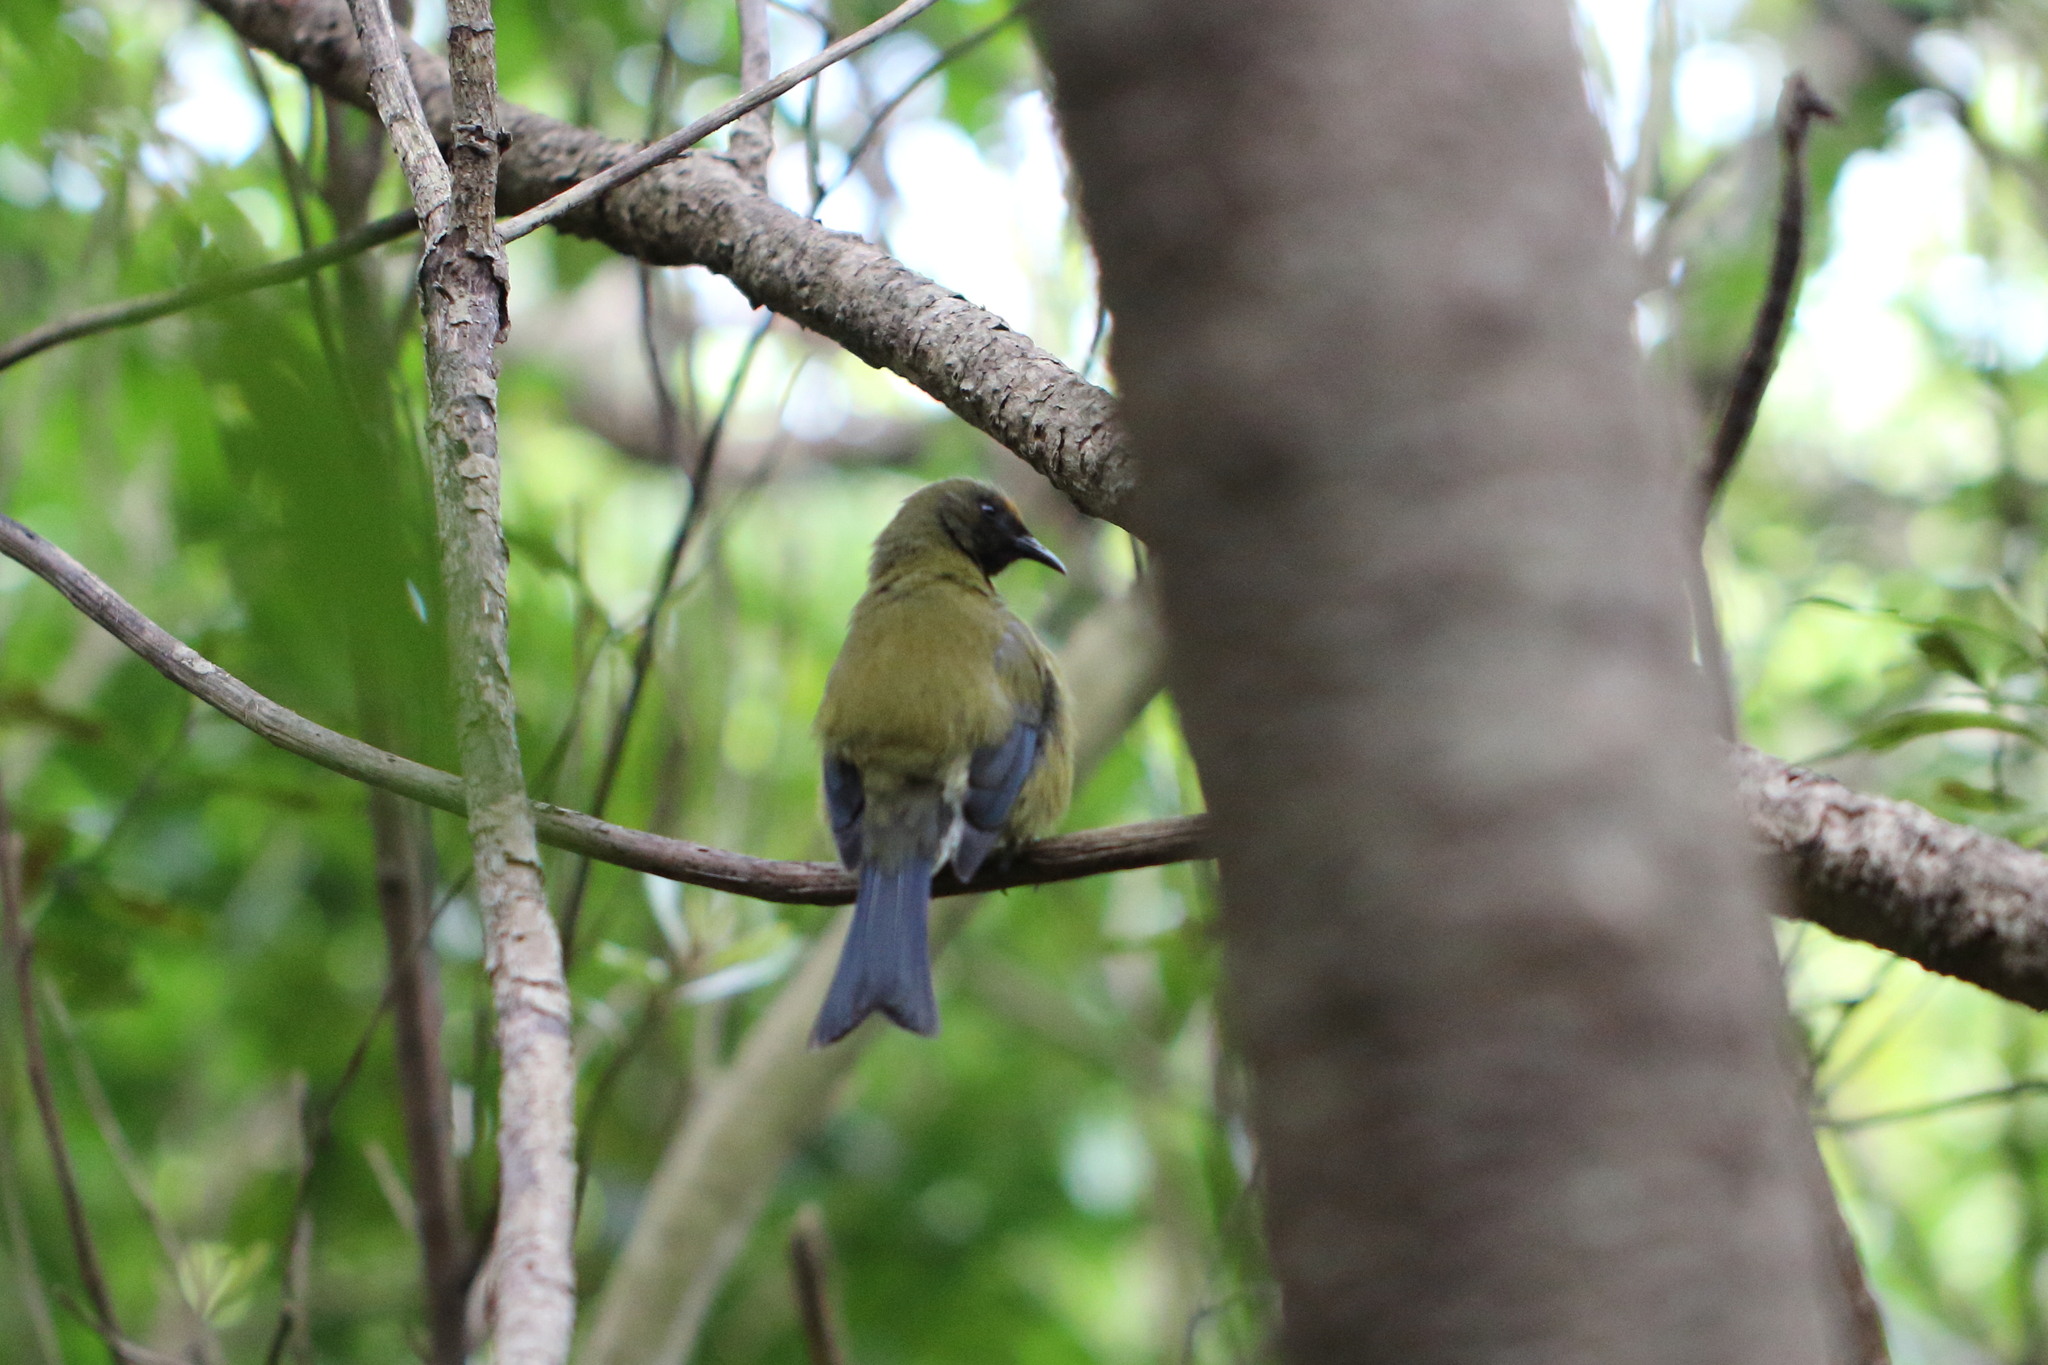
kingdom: Animalia
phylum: Chordata
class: Aves
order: Passeriformes
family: Meliphagidae
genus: Anthornis
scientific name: Anthornis melanura
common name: New zealand bellbird
